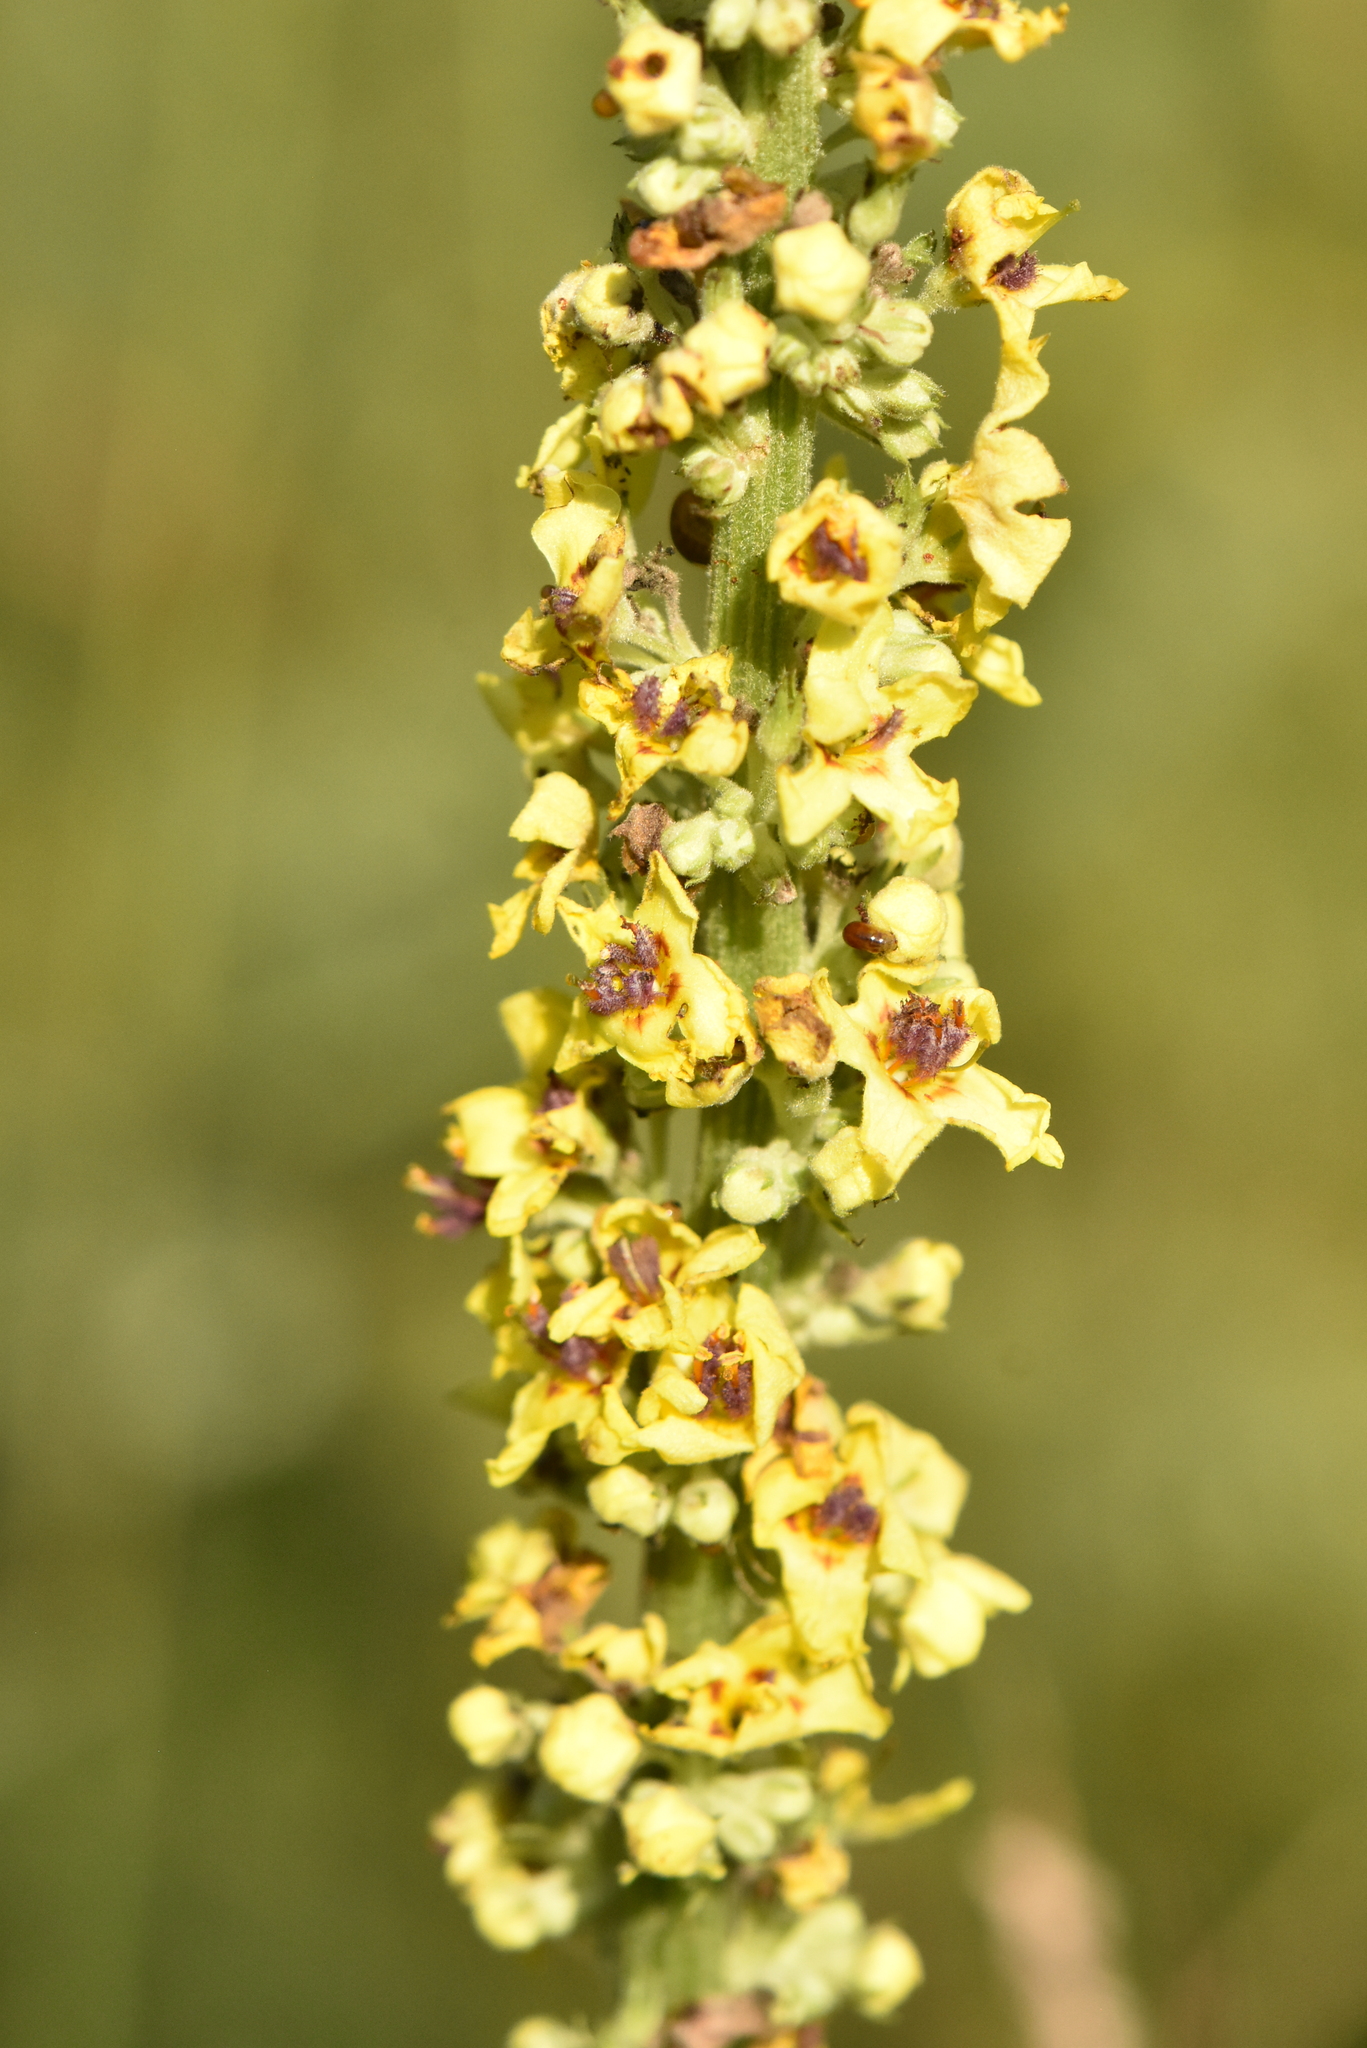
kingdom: Plantae
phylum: Tracheophyta
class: Magnoliopsida
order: Lamiales
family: Scrophulariaceae
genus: Verbascum
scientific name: Verbascum nigrum
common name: Dark mullein
